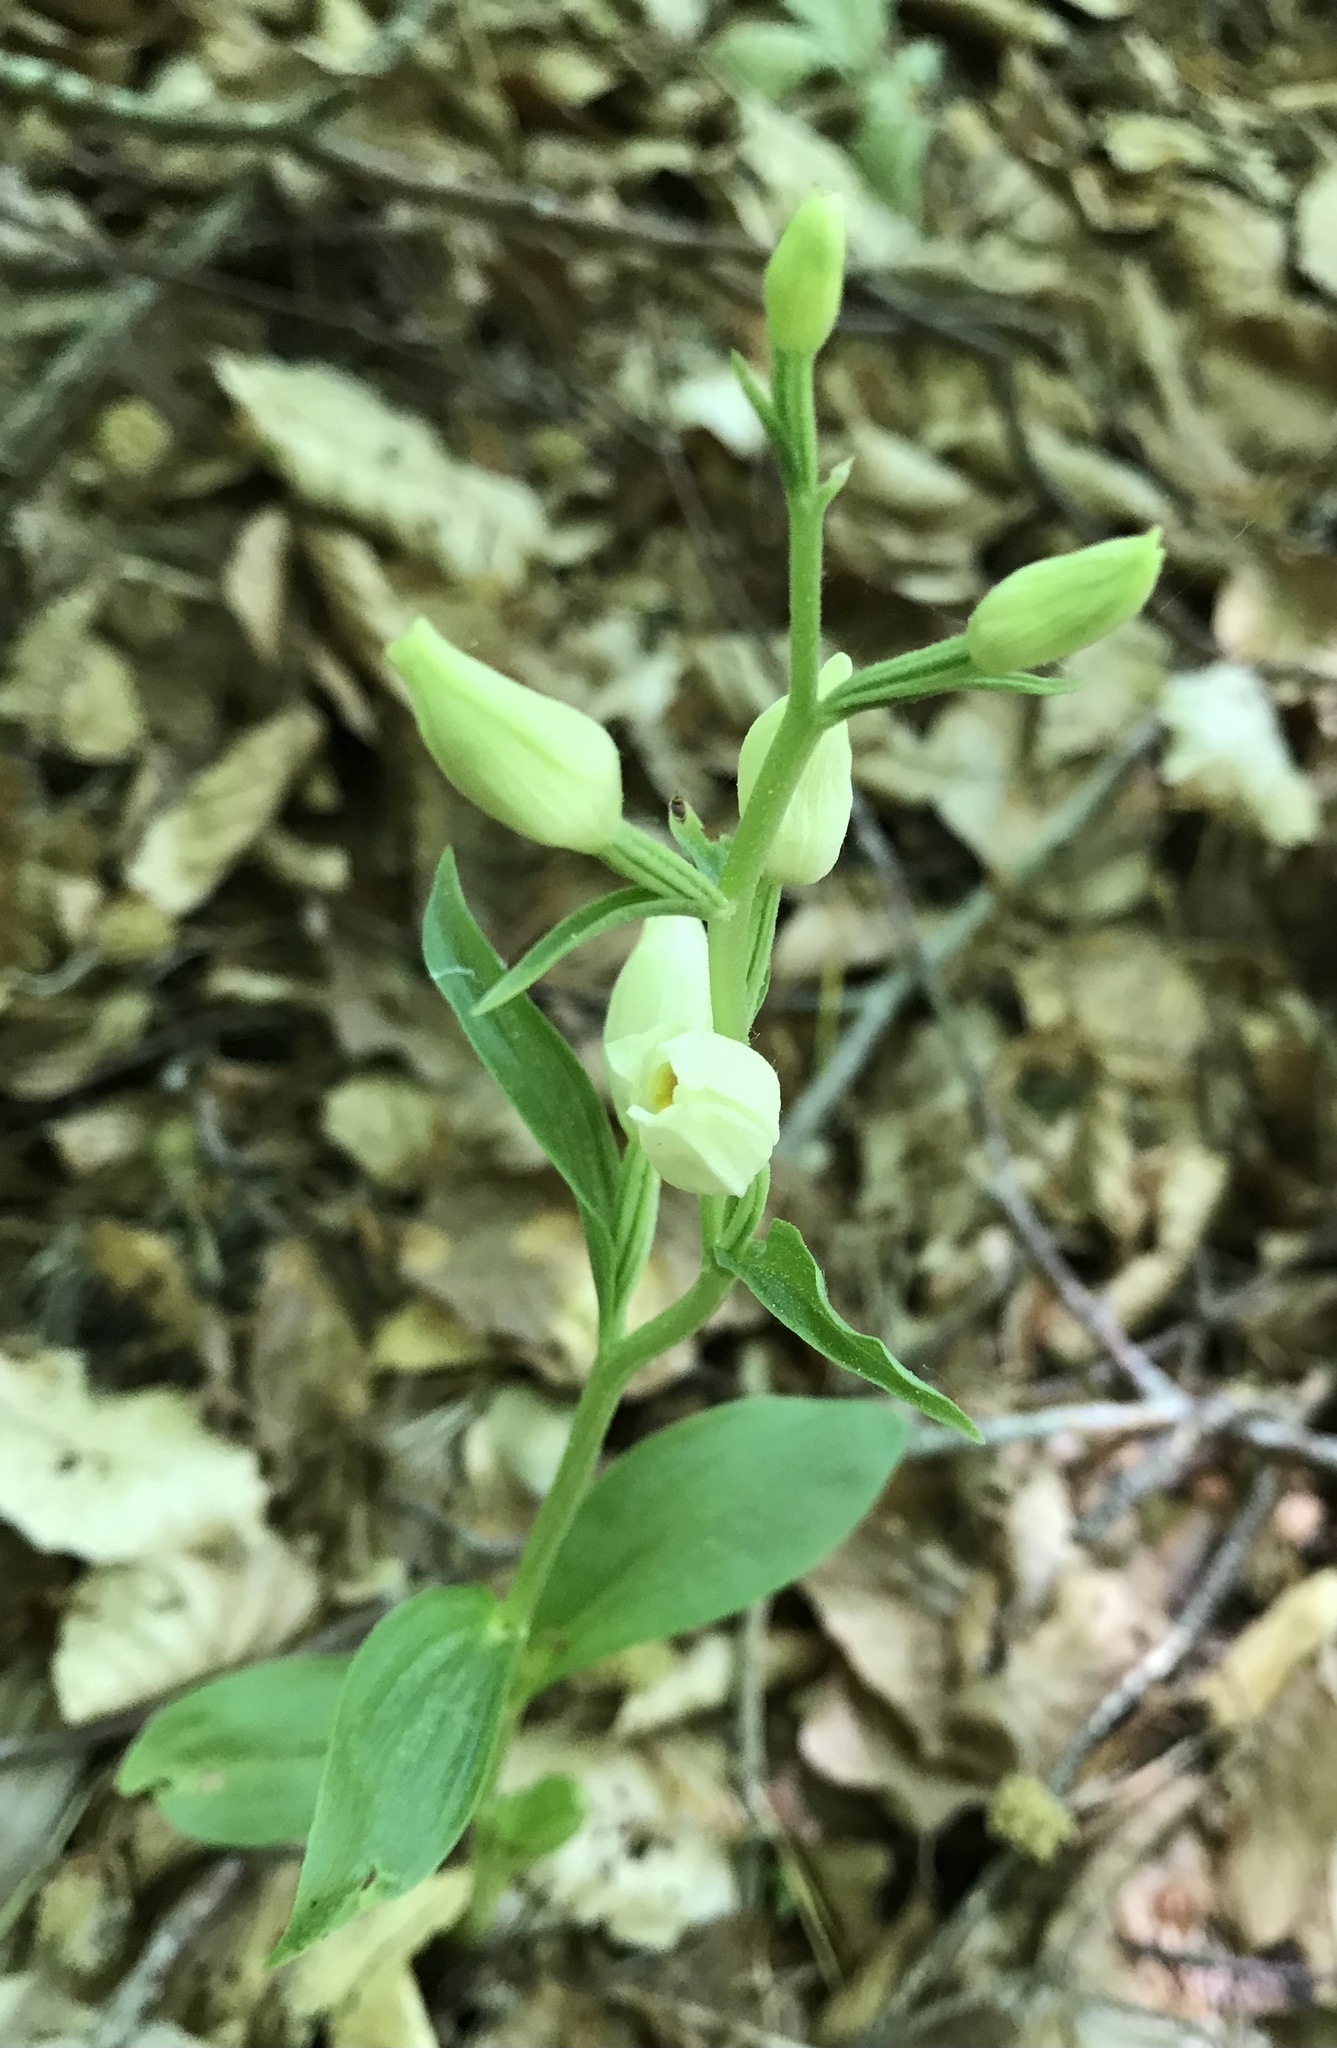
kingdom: Plantae
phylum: Tracheophyta
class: Liliopsida
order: Asparagales
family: Orchidaceae
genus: Cephalanthera
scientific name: Cephalanthera damasonium
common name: White helleborine
